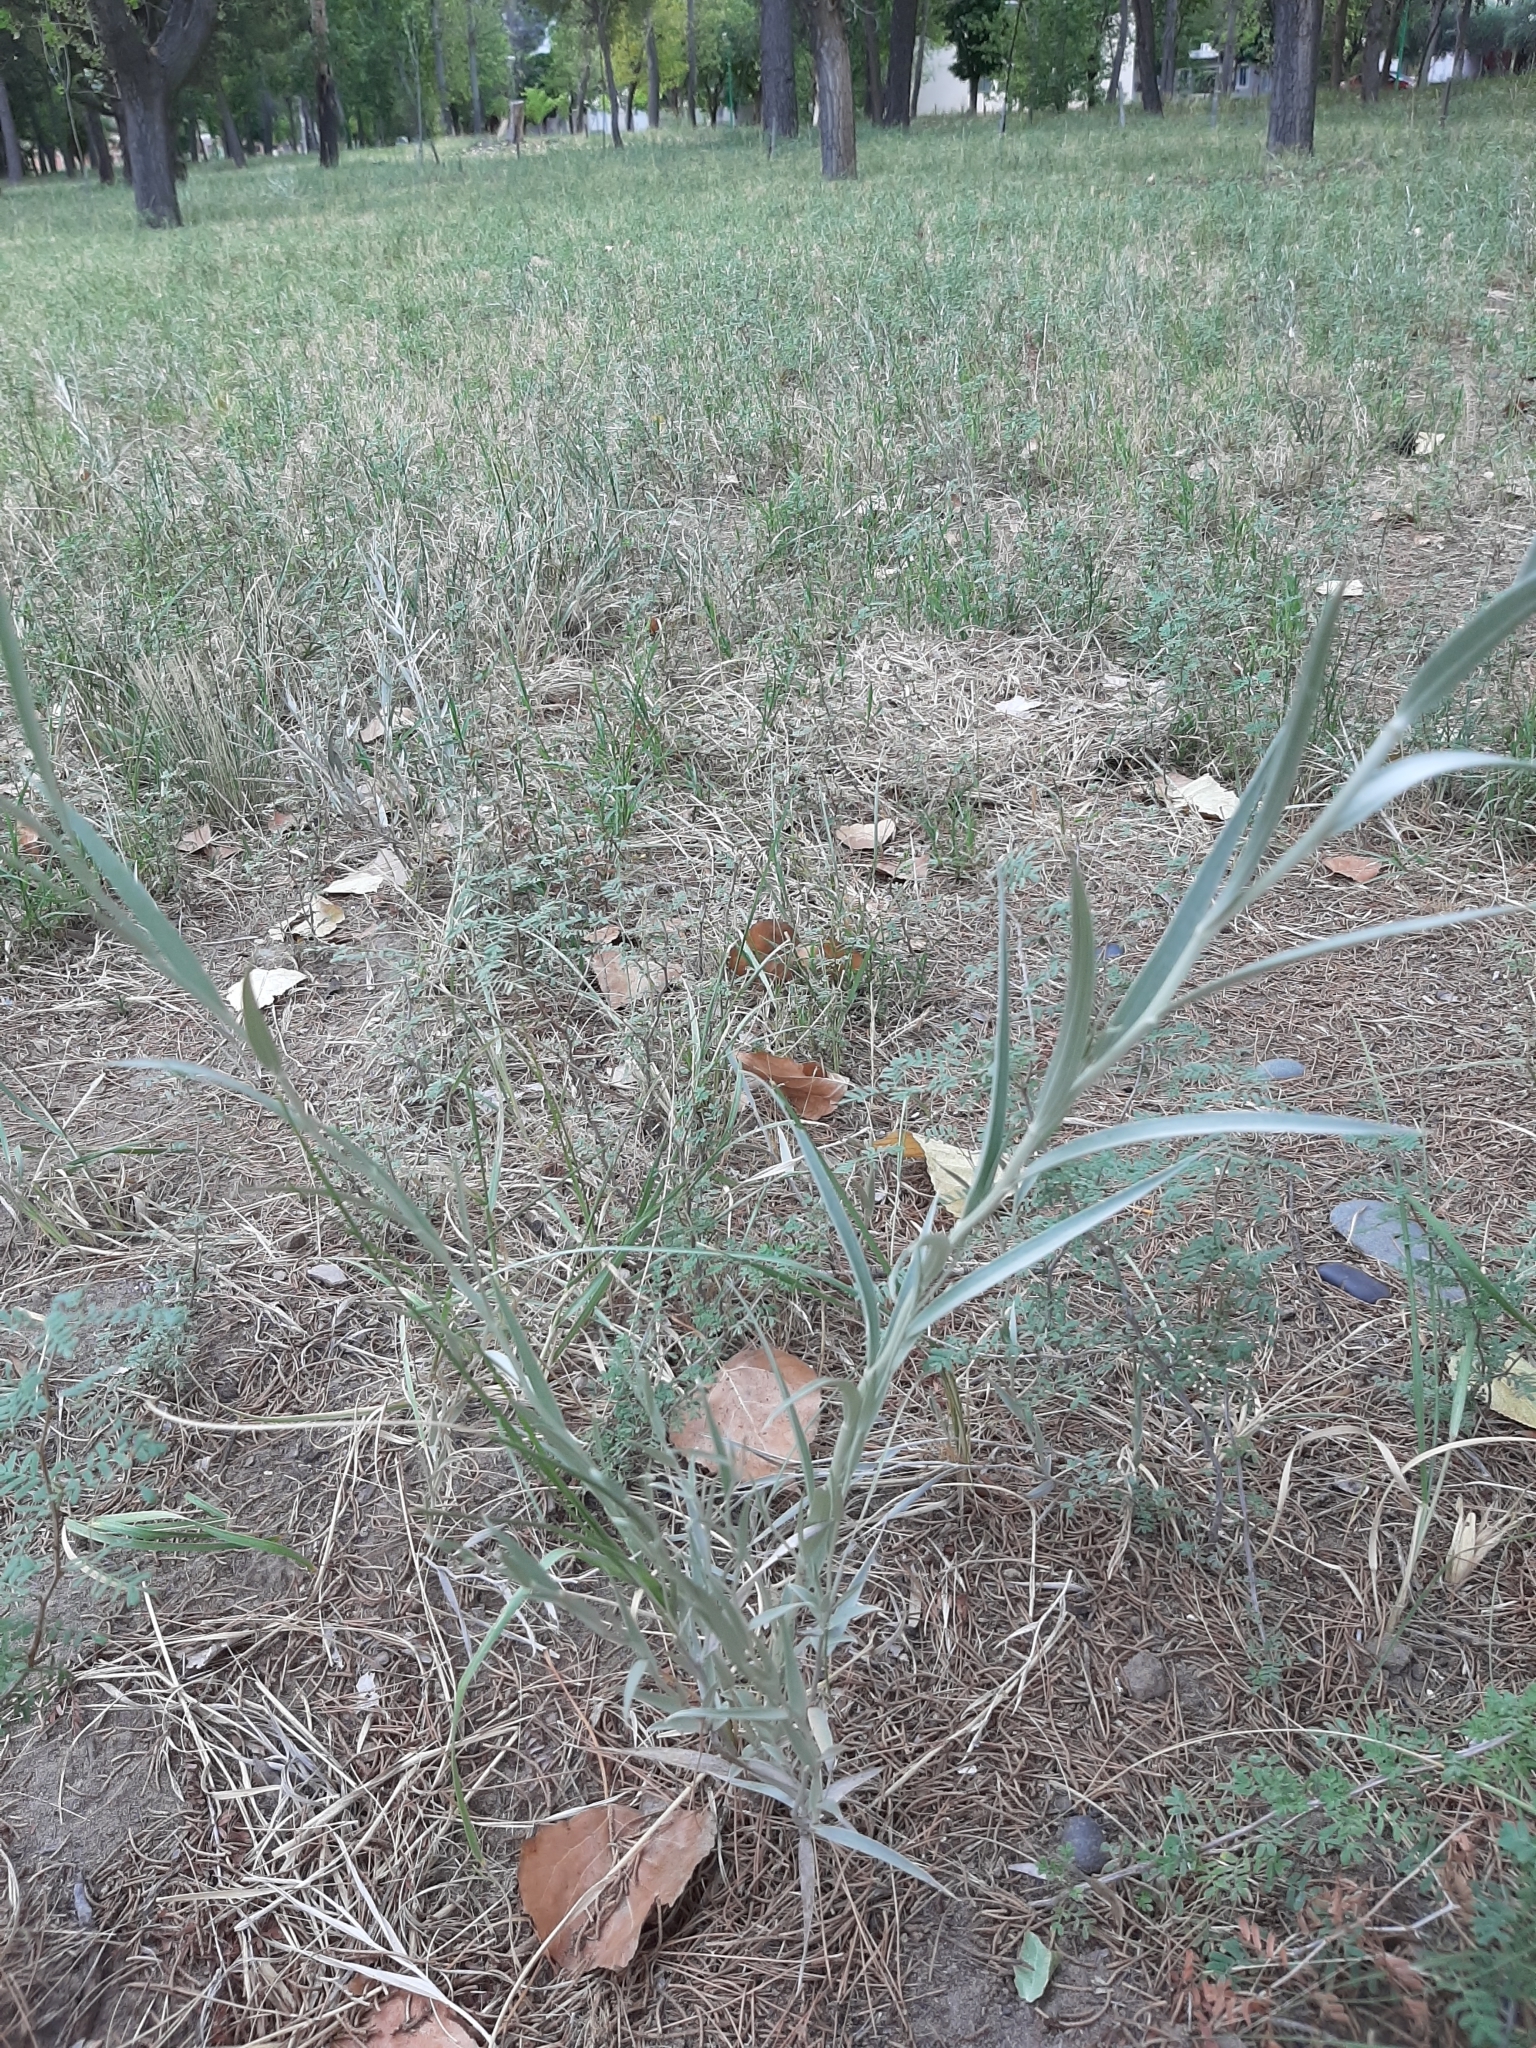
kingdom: Plantae
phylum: Tracheophyta
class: Magnoliopsida
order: Asterales
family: Asteraceae
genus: Hyalis
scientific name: Hyalis argentea
